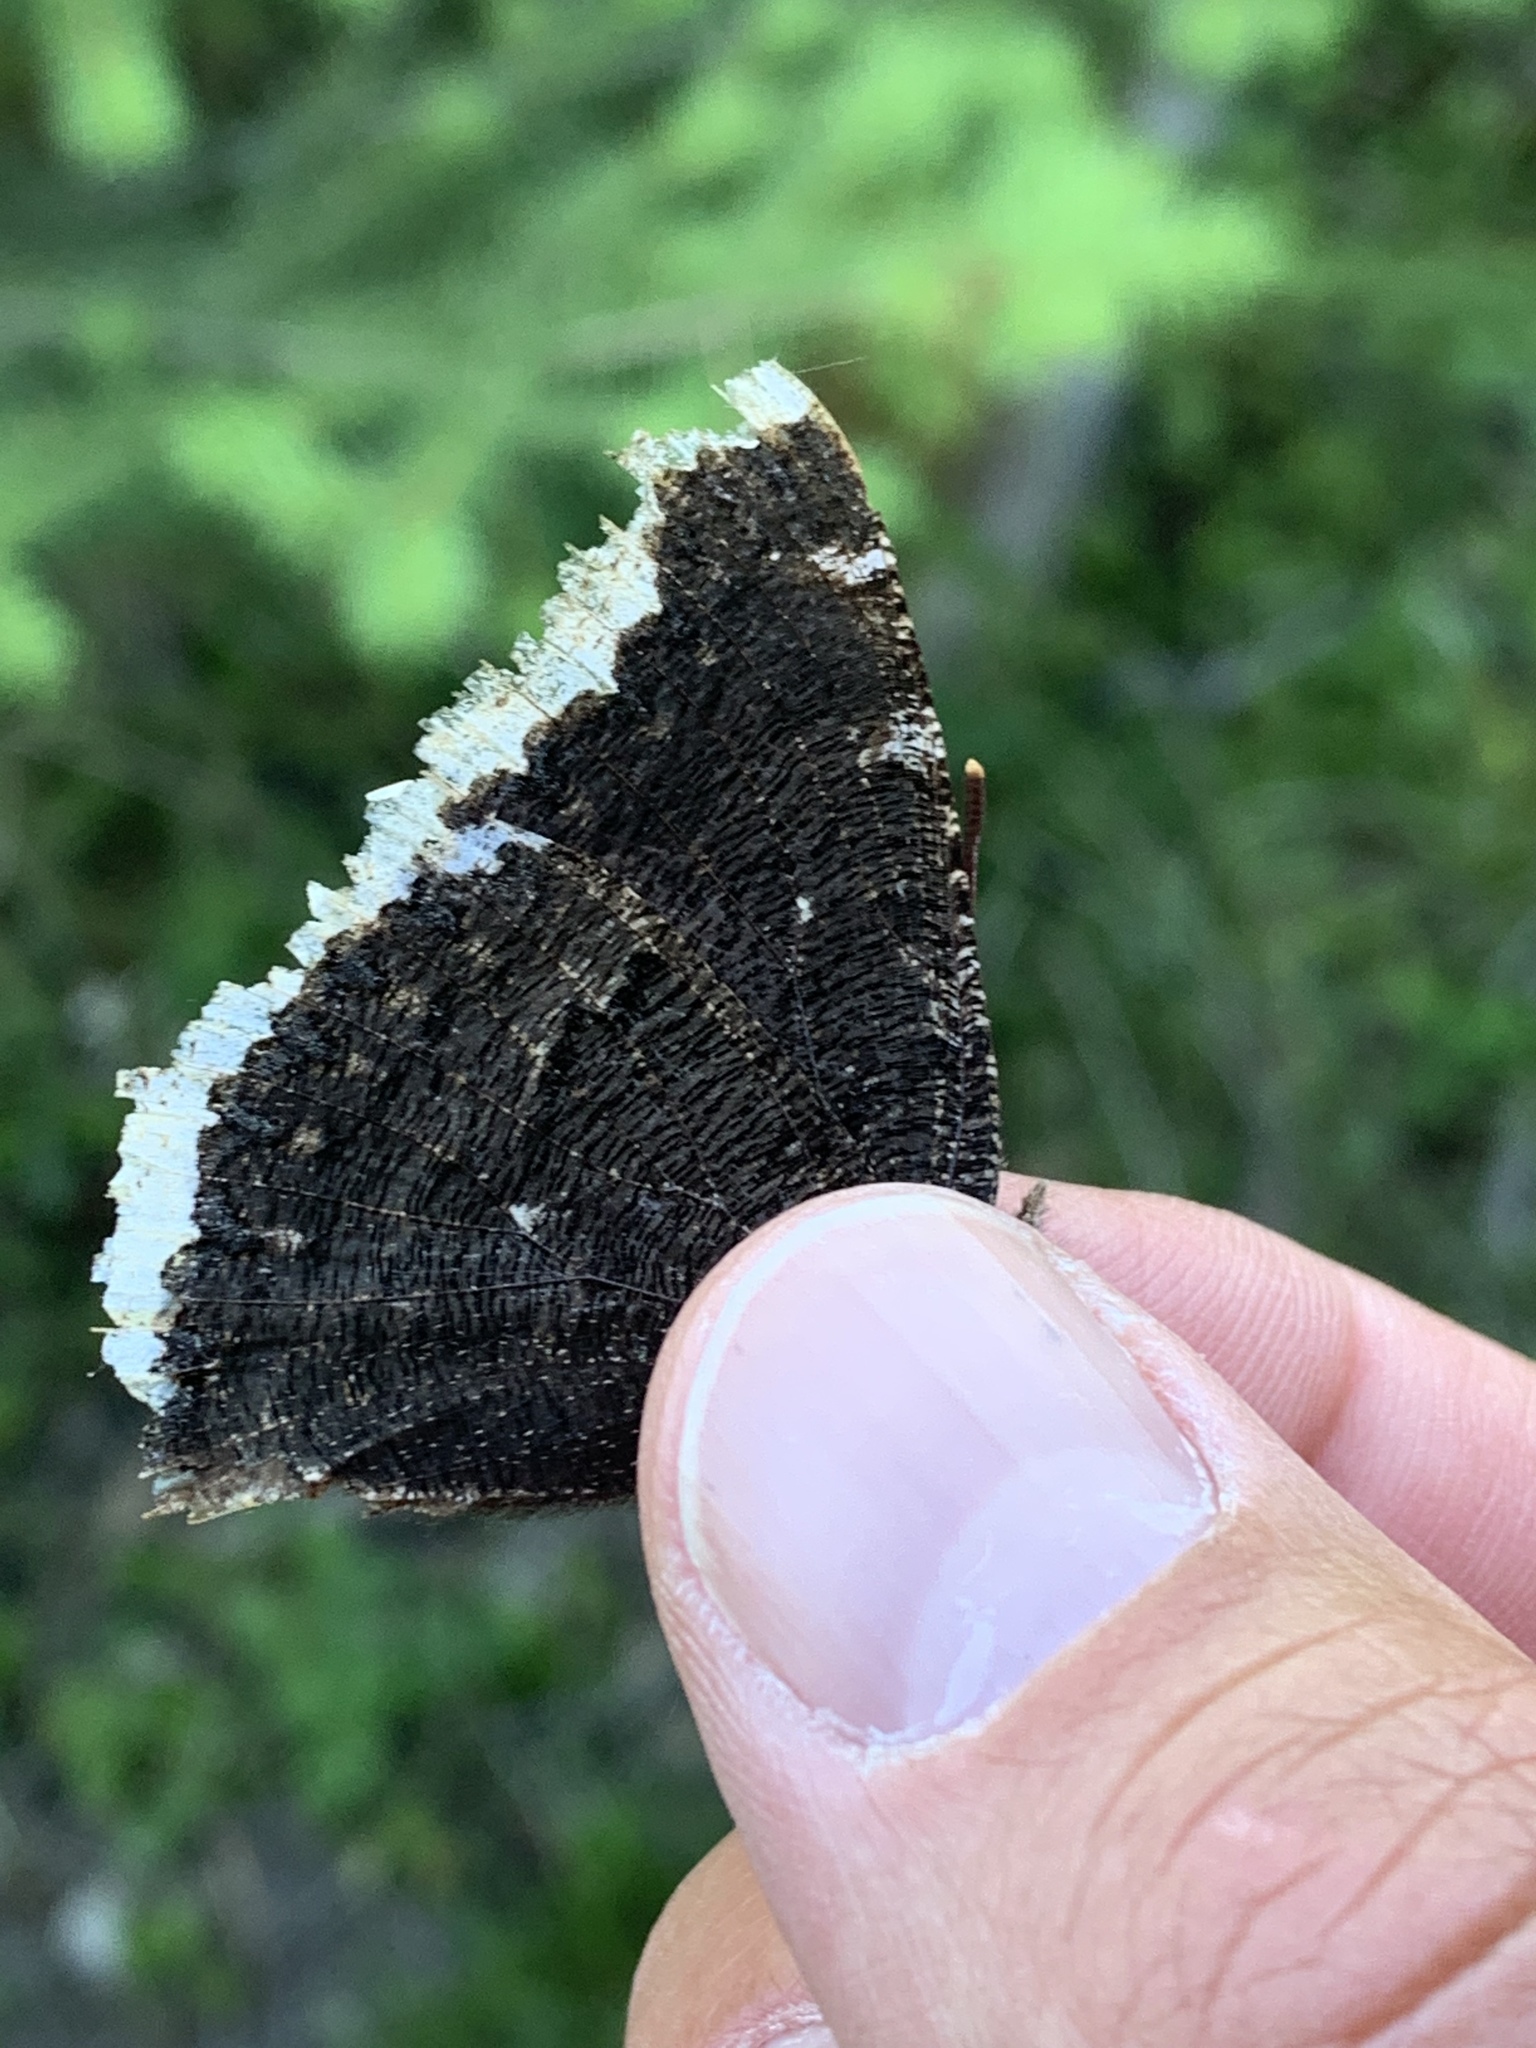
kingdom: Animalia
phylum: Arthropoda
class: Insecta
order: Lepidoptera
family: Nymphalidae
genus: Nymphalis
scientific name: Nymphalis antiopa
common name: Camberwell beauty
